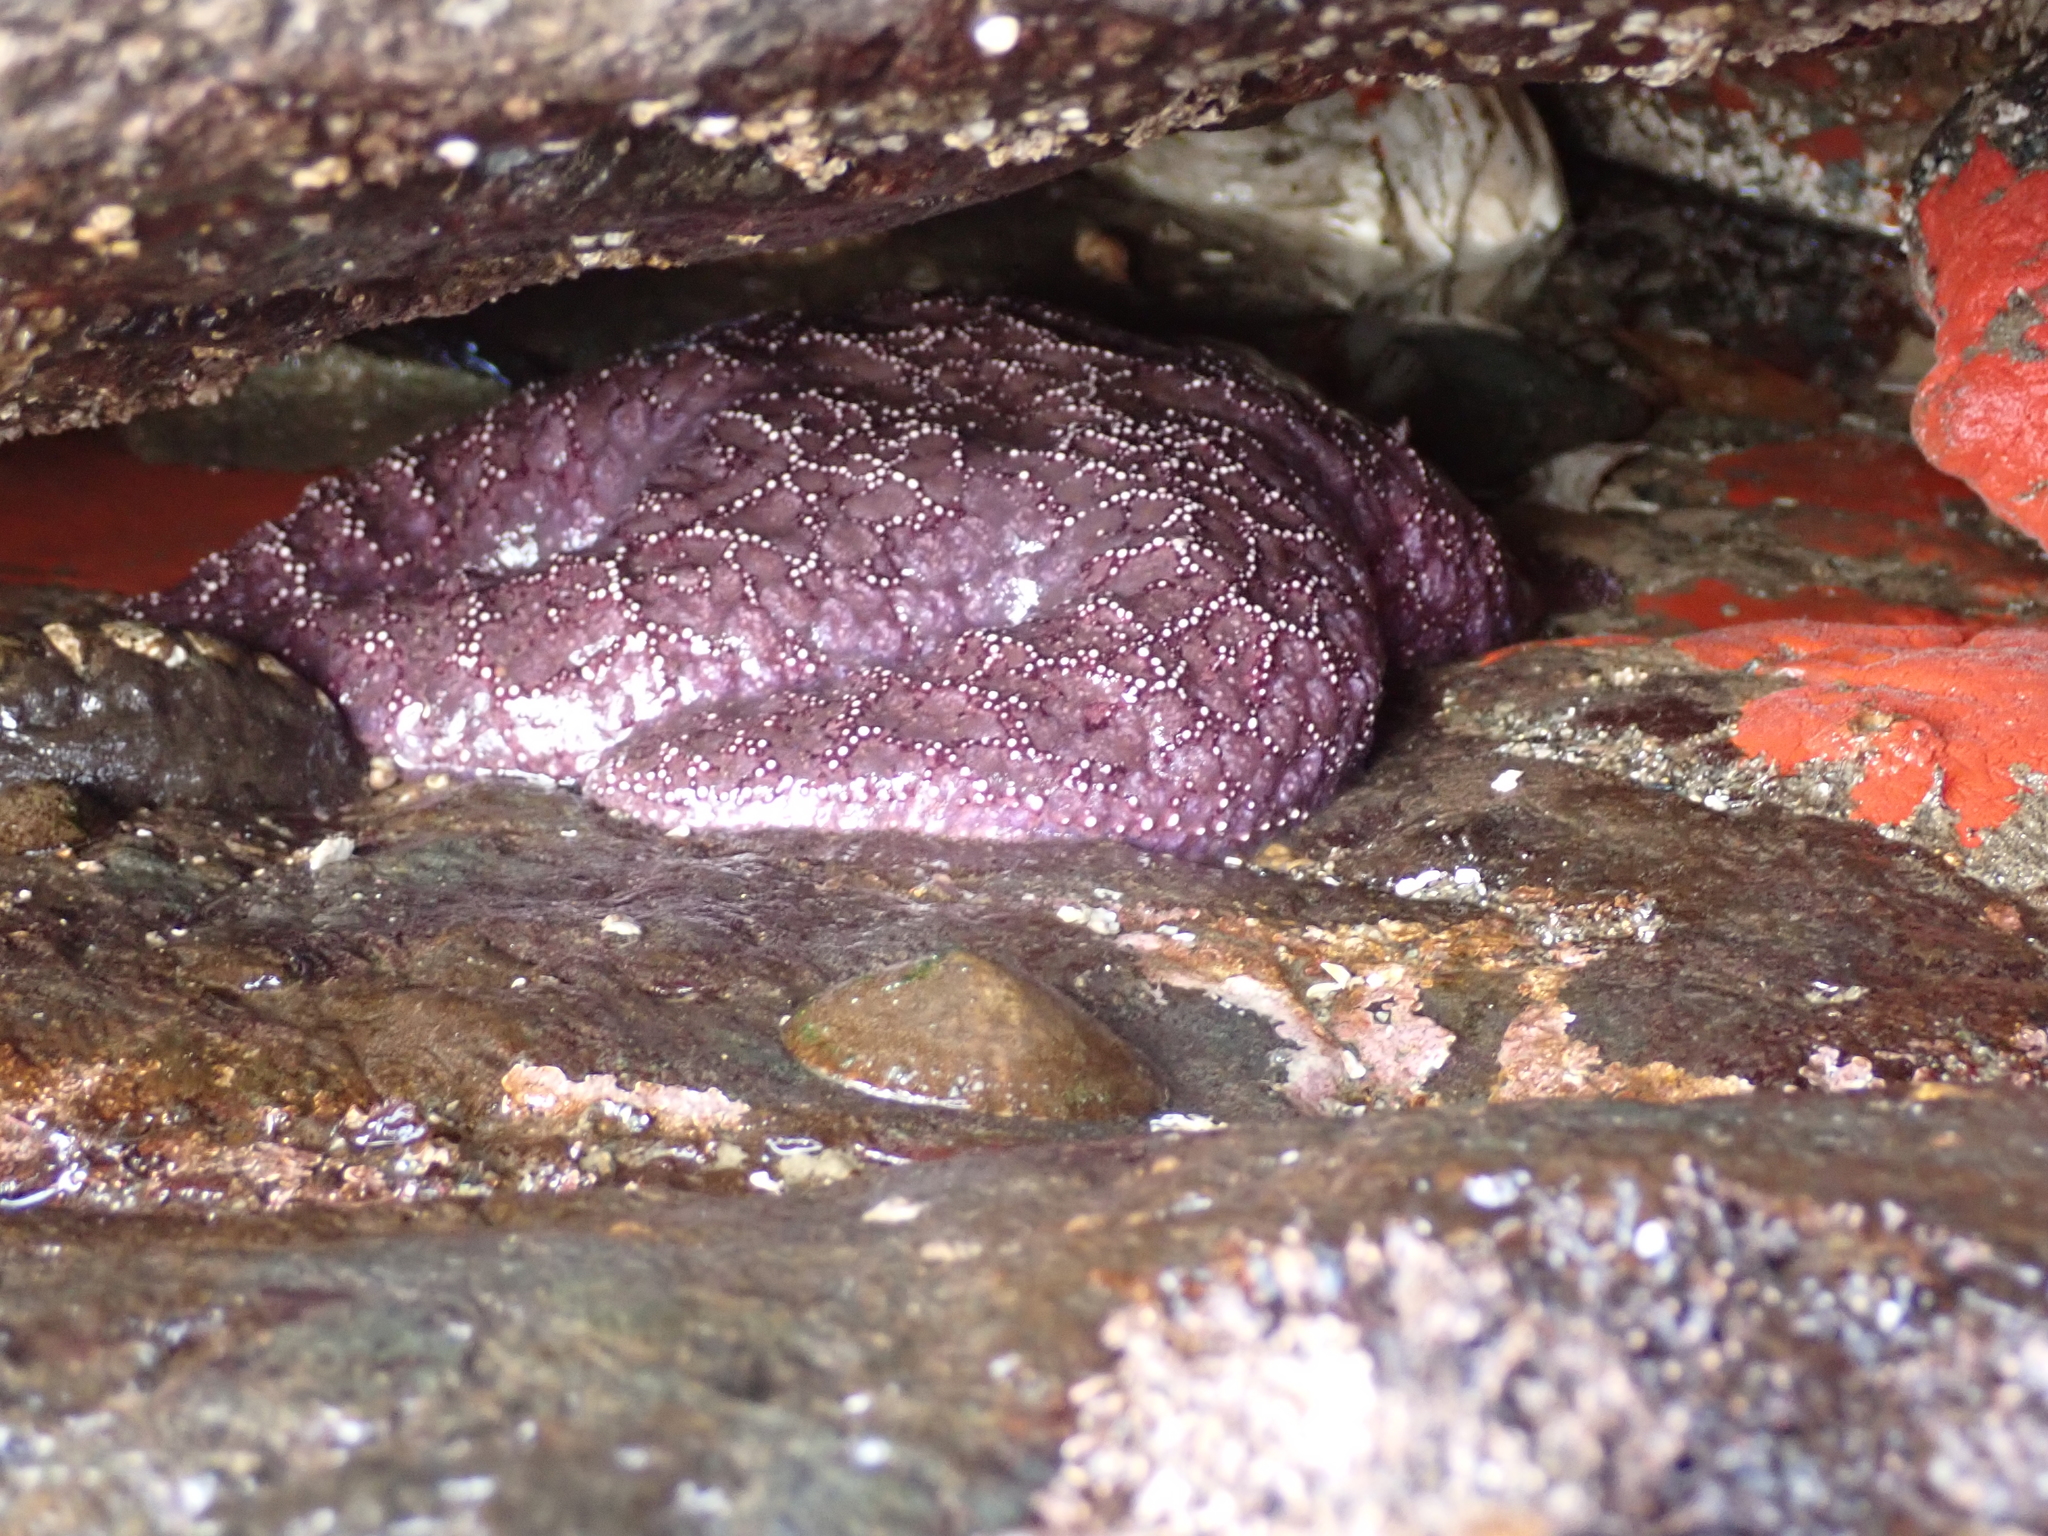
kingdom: Animalia
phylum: Echinodermata
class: Asteroidea
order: Forcipulatida
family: Asteriidae
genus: Pisaster
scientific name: Pisaster ochraceus
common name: Ochre stars
